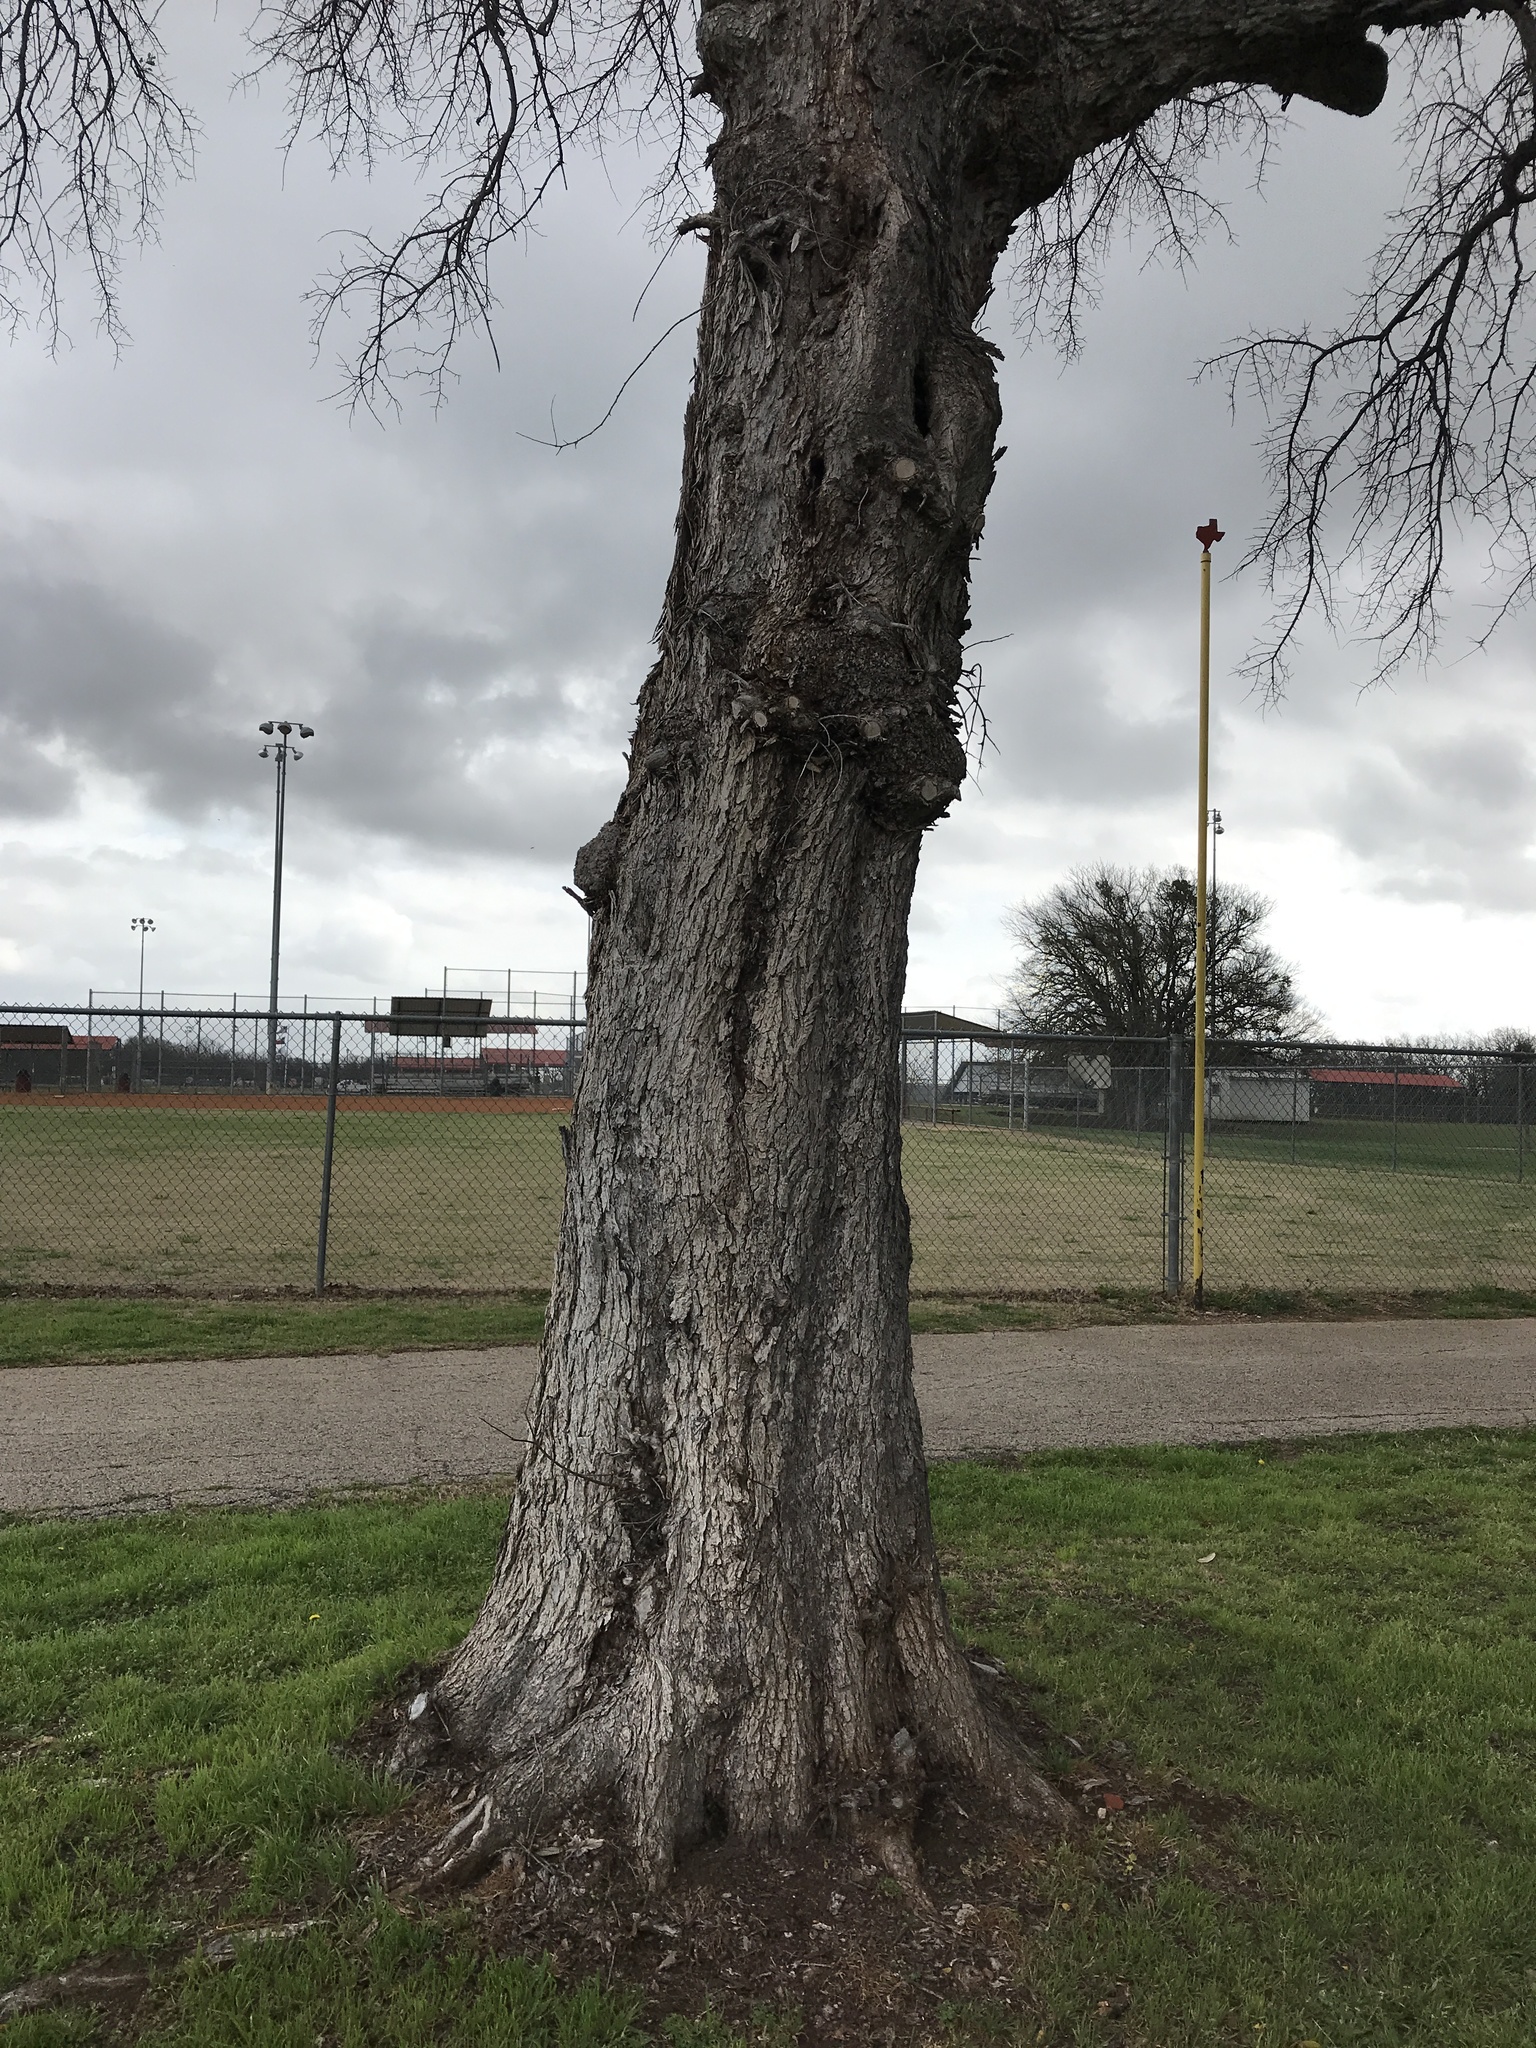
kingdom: Plantae
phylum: Tracheophyta
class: Magnoliopsida
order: Rosales
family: Ulmaceae
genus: Ulmus
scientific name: Ulmus crassifolia
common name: Basket elm
